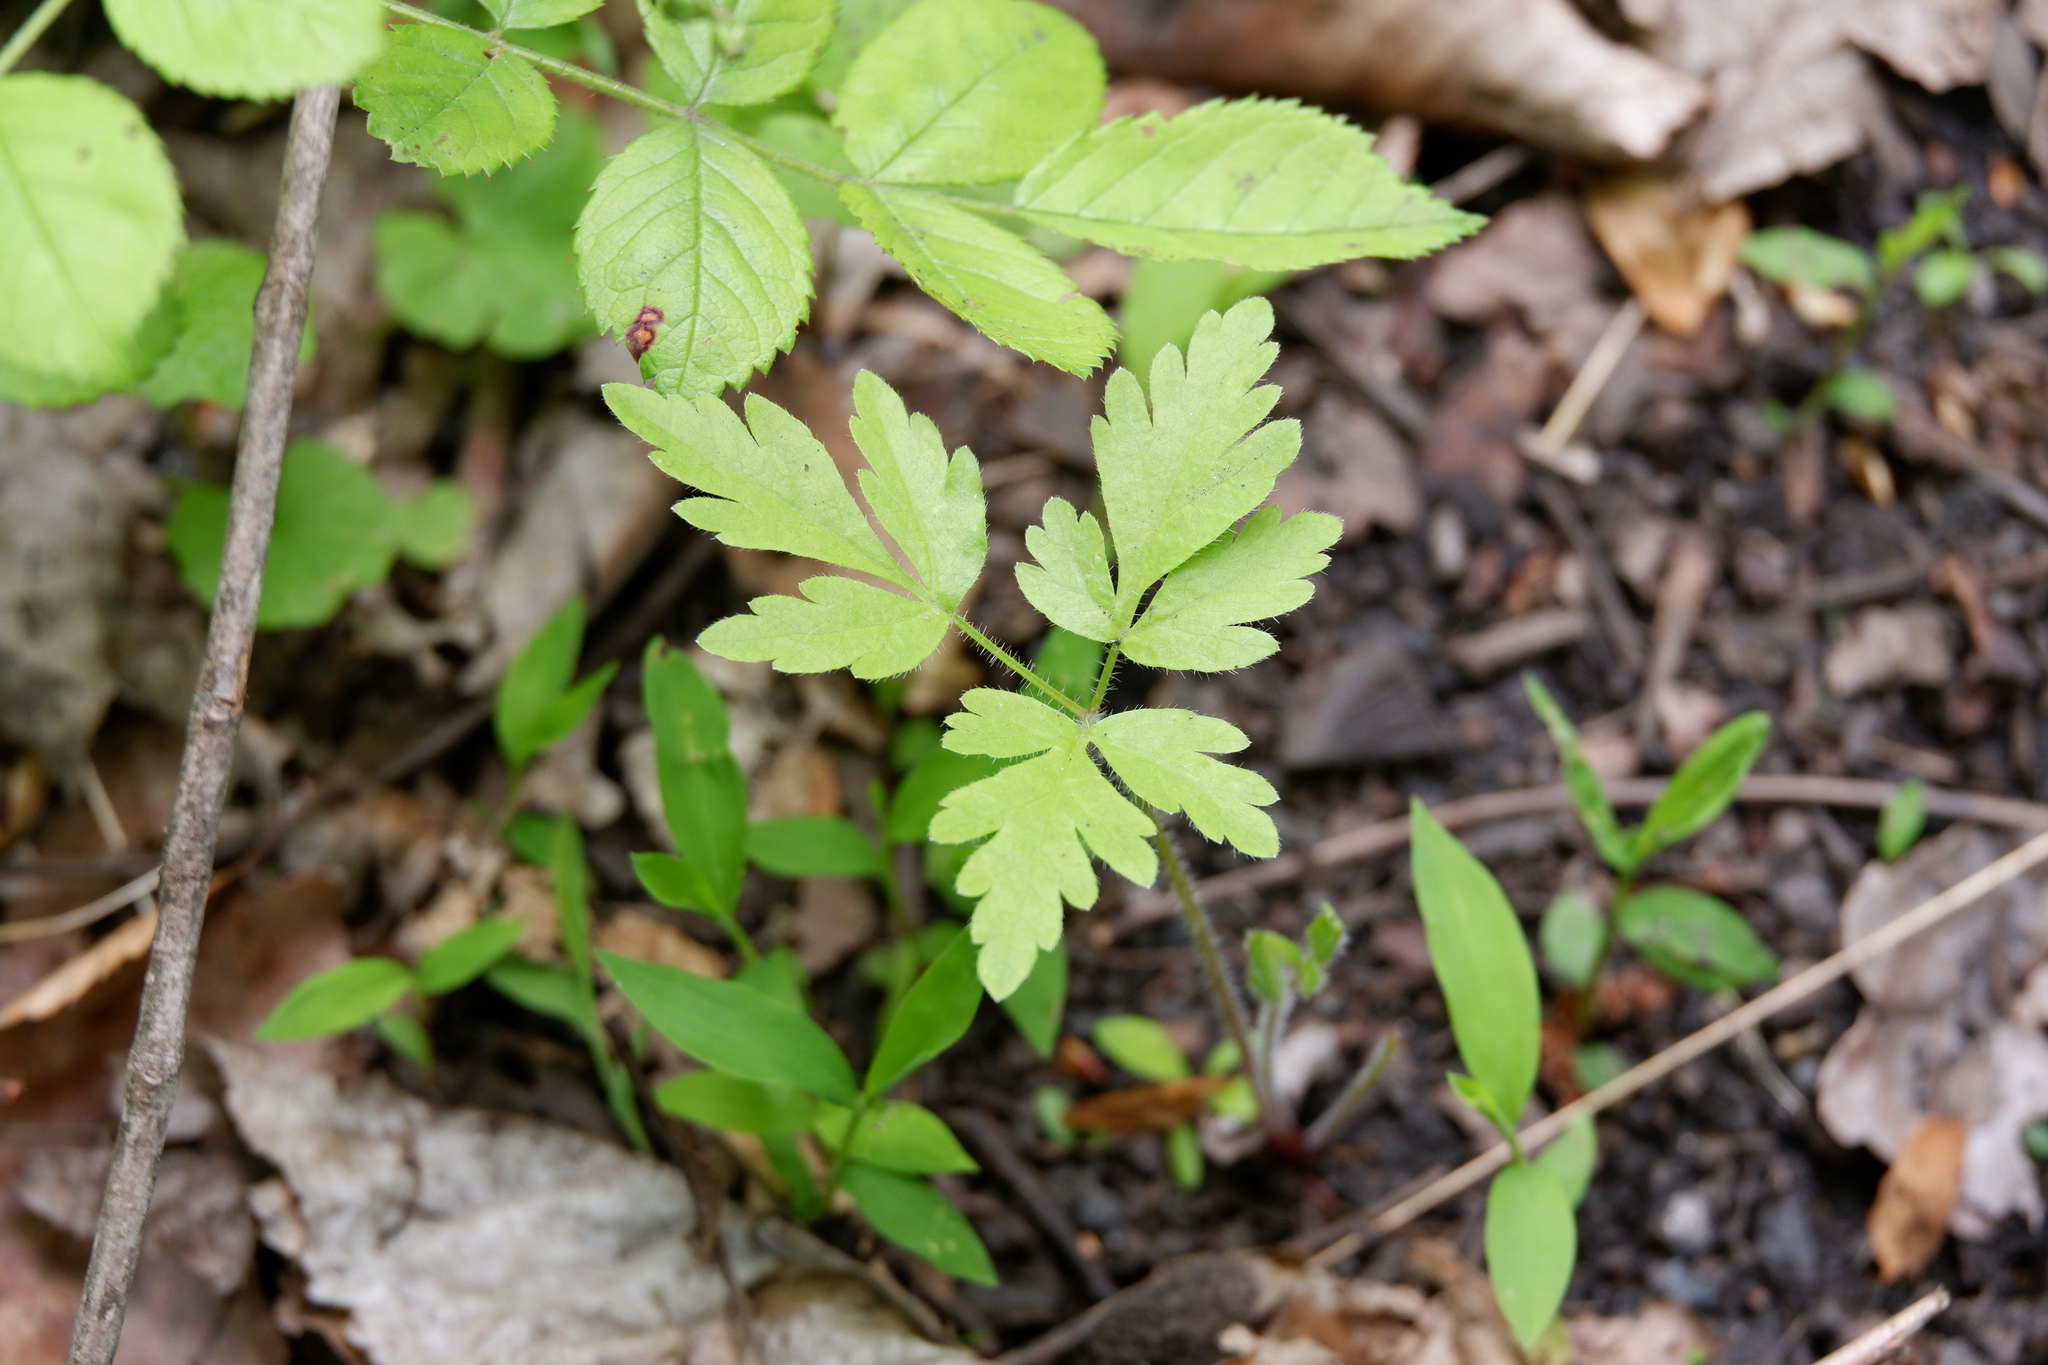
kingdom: Plantae
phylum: Tracheophyta
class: Magnoliopsida
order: Apiales
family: Apiaceae
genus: Osmorhiza
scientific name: Osmorhiza claytonii
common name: Hairy sweet cicely
